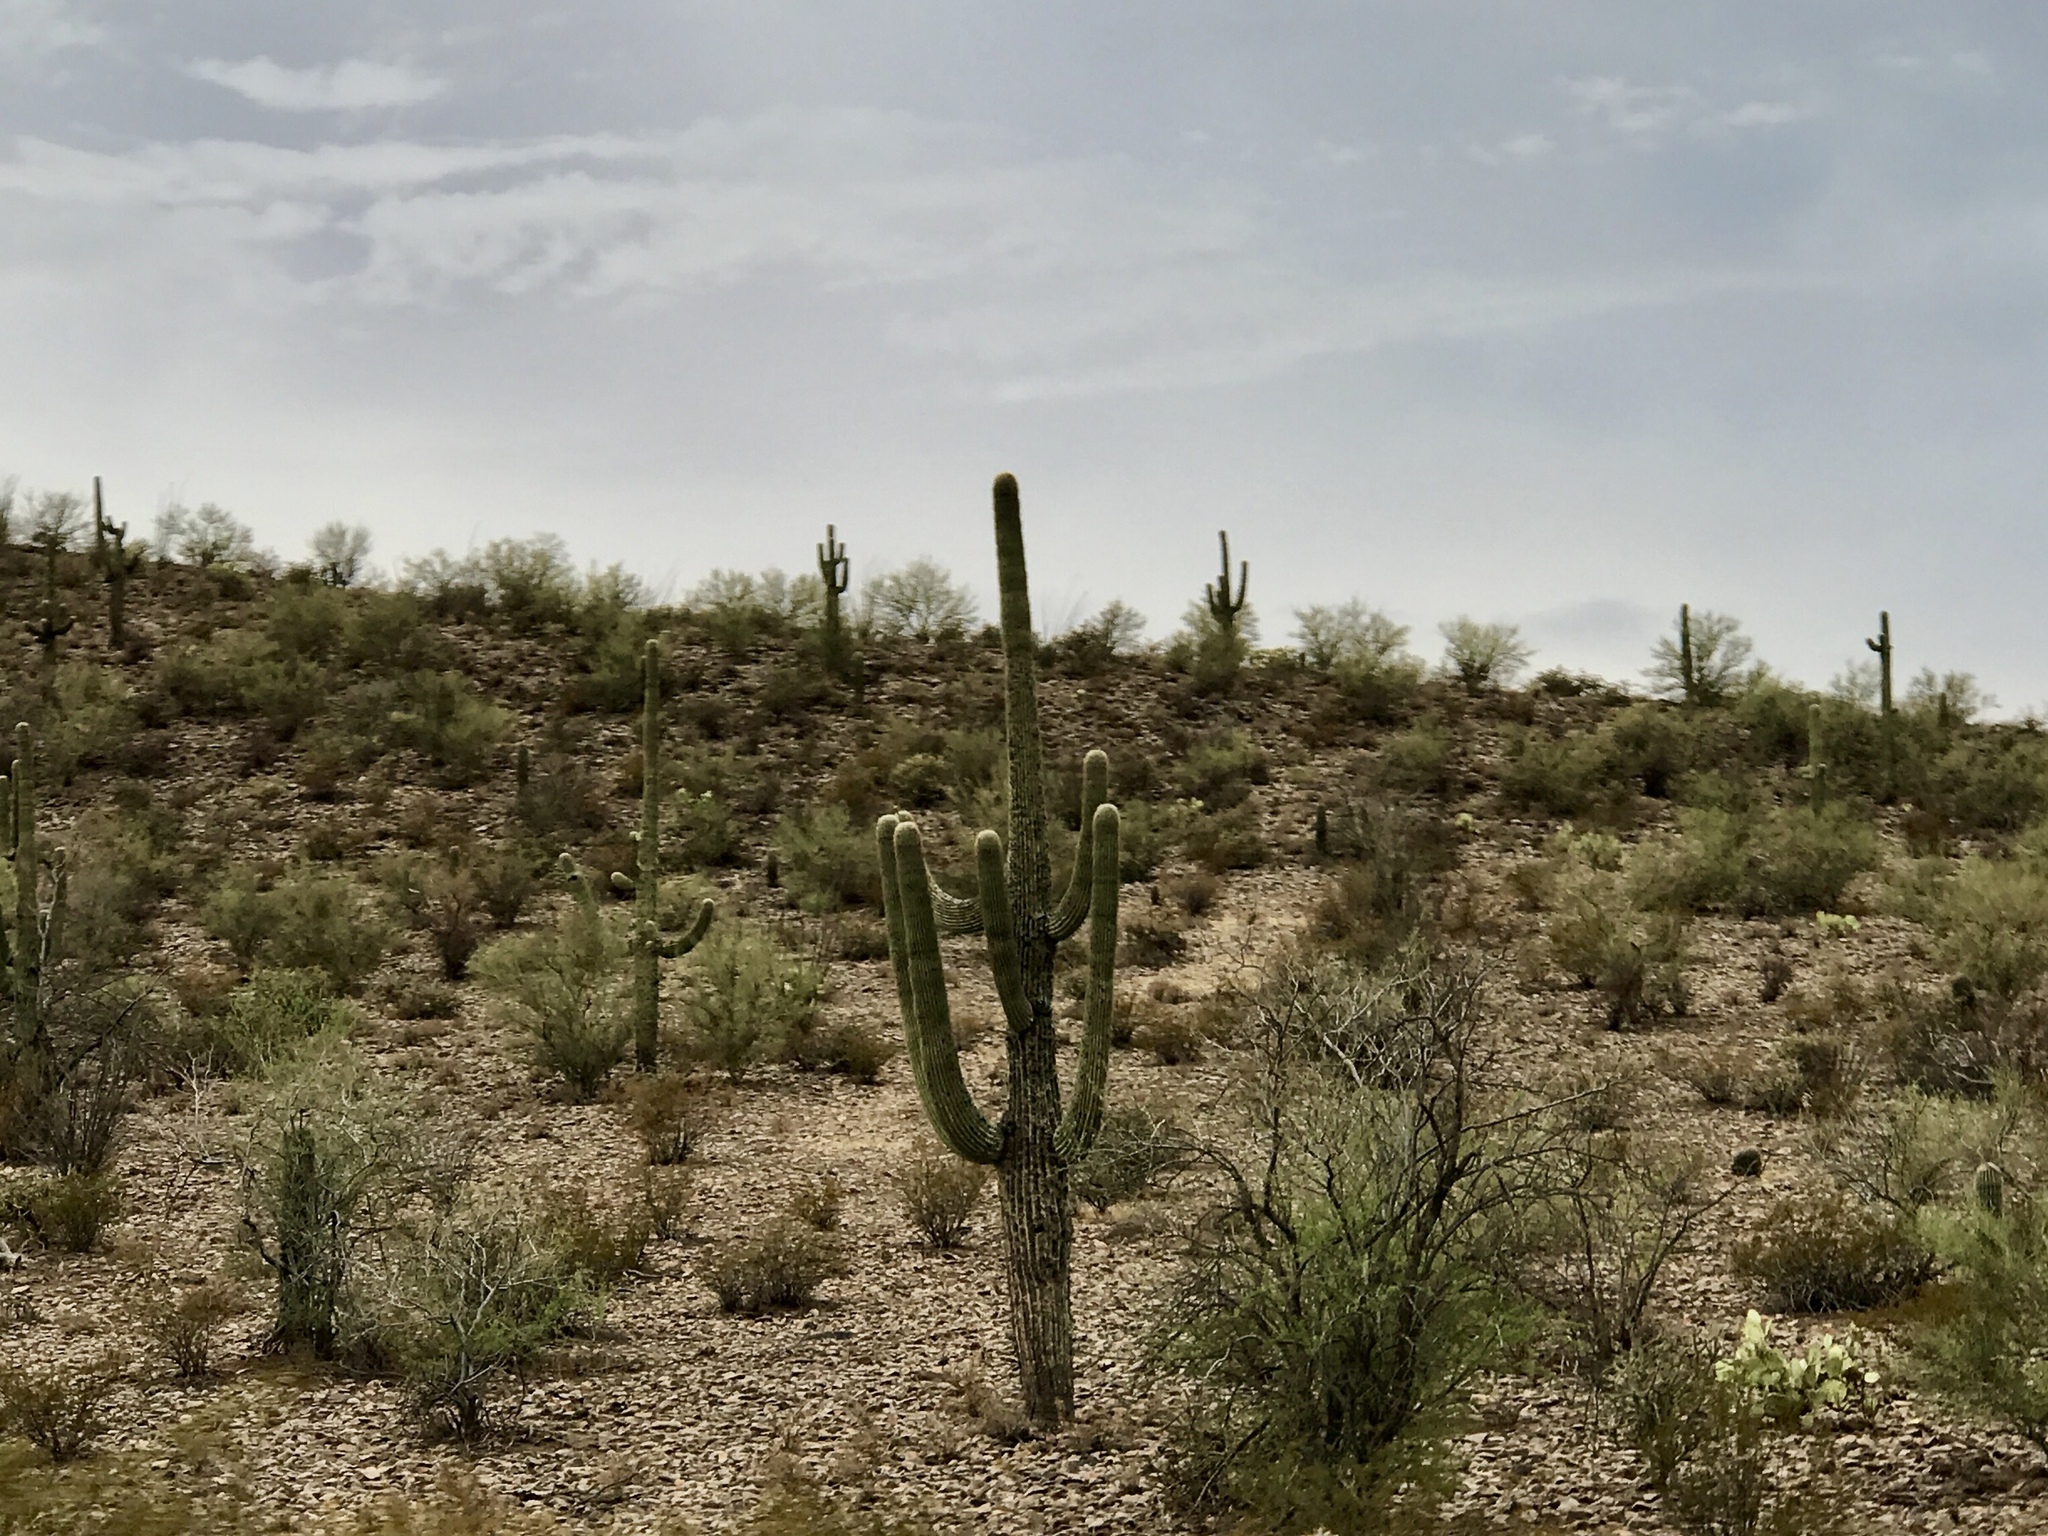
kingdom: Plantae
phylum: Tracheophyta
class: Magnoliopsida
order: Caryophyllales
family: Cactaceae
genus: Carnegiea
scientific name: Carnegiea gigantea
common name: Saguaro
